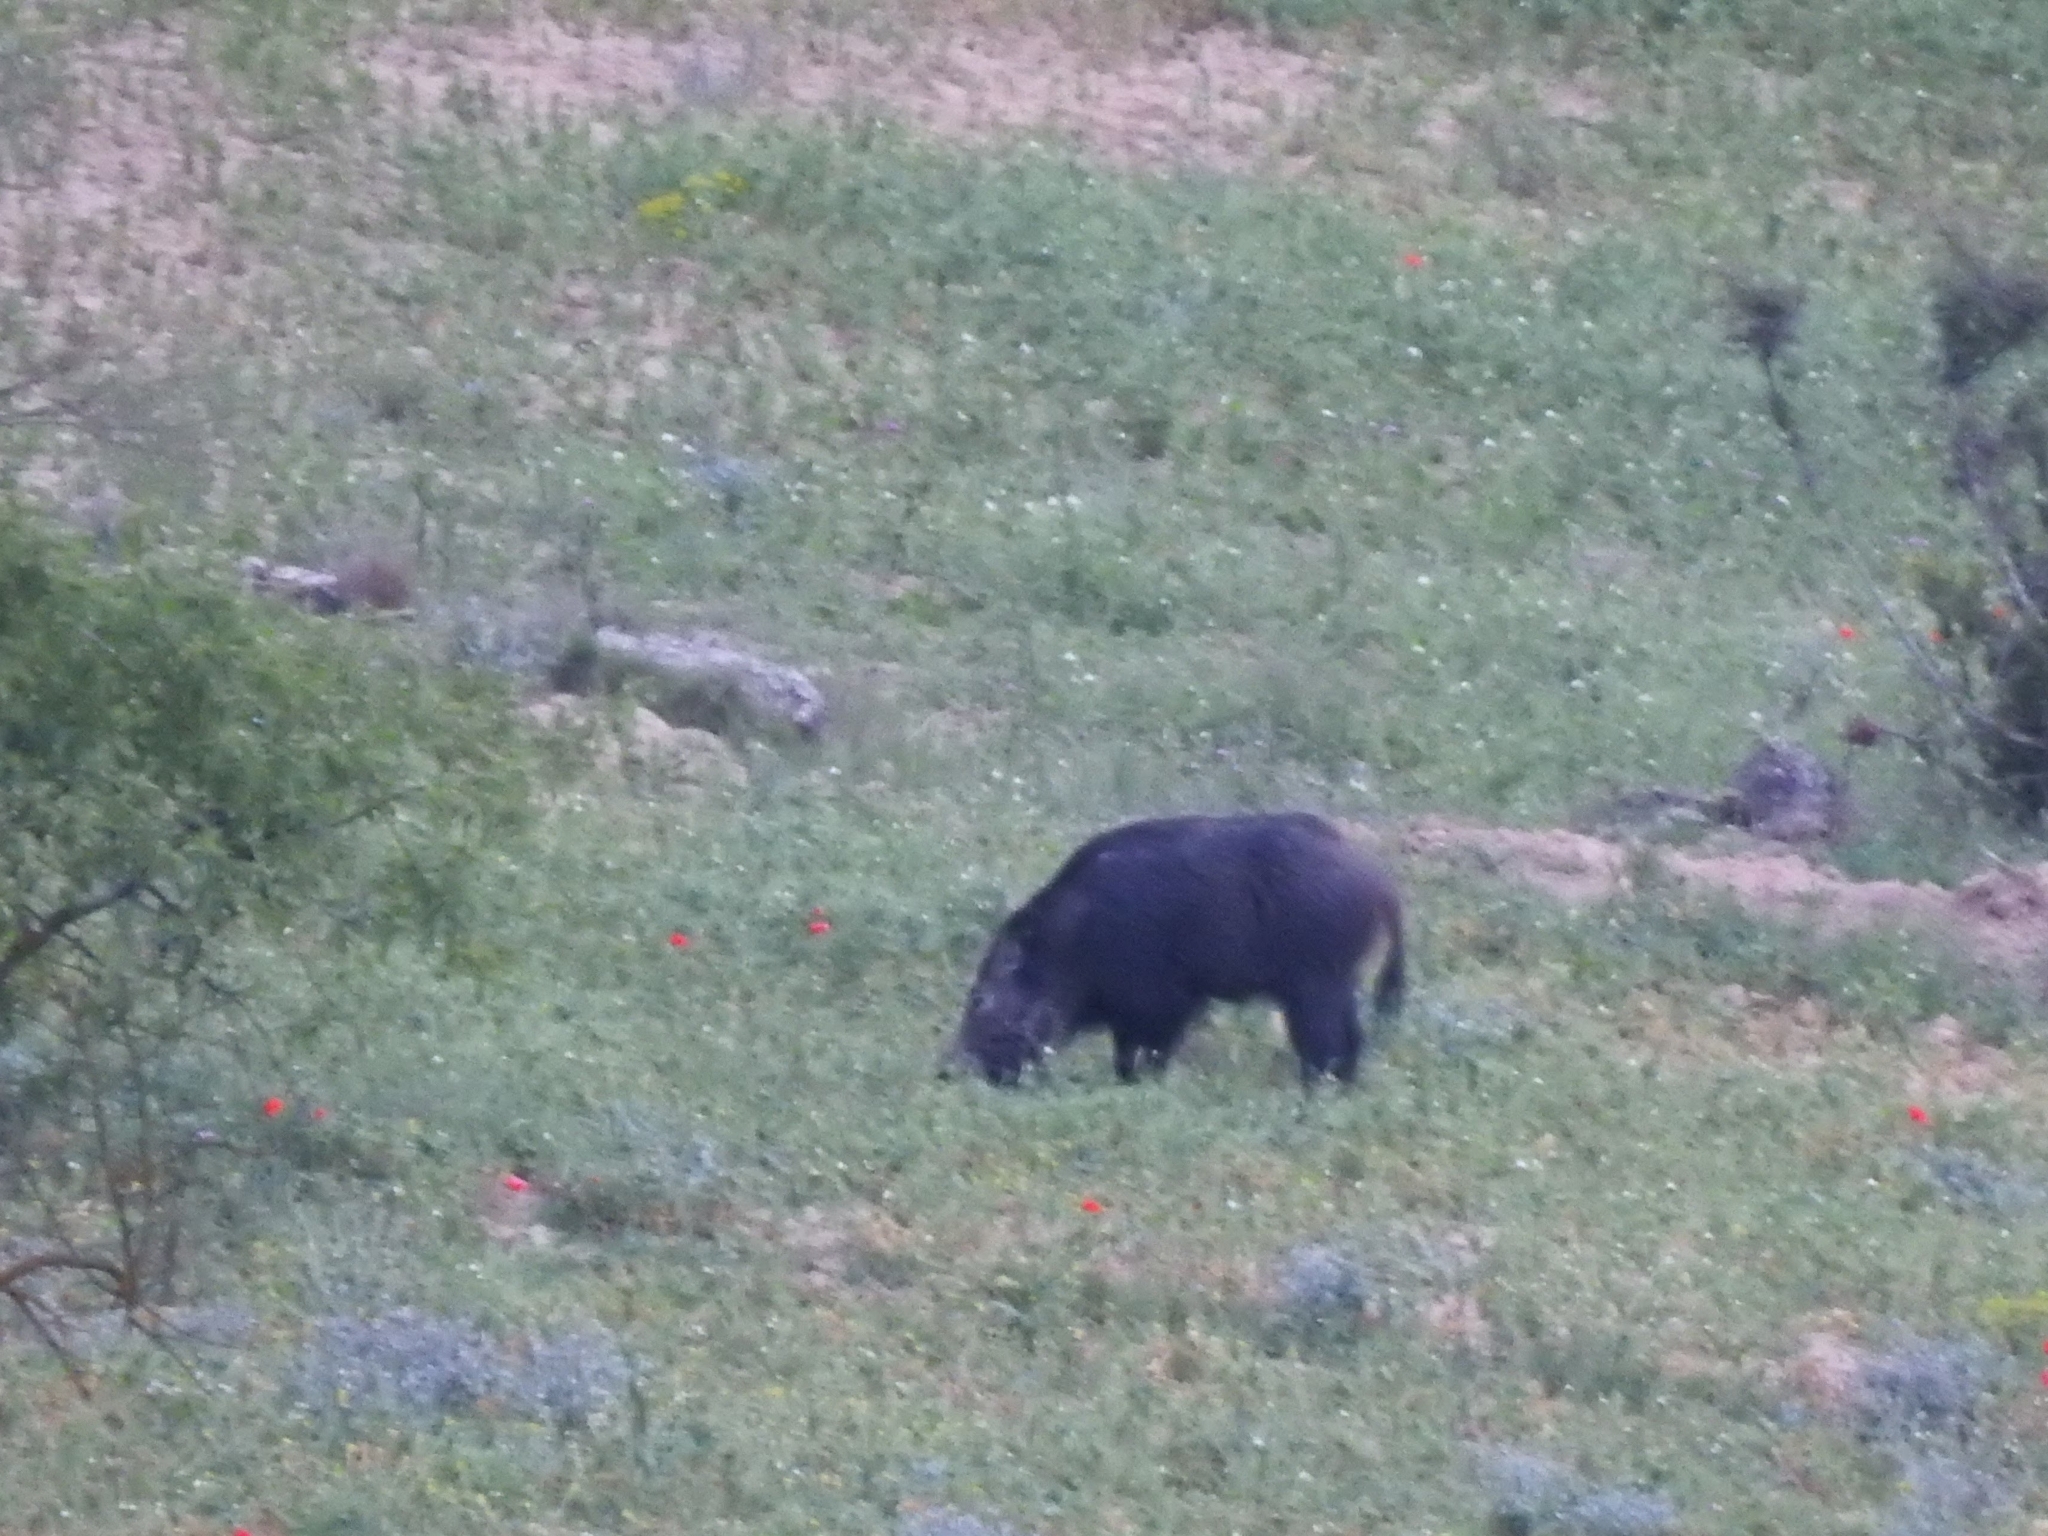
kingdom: Animalia
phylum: Chordata
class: Mammalia
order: Artiodactyla
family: Suidae
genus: Sus
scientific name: Sus scrofa
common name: Wild boar
